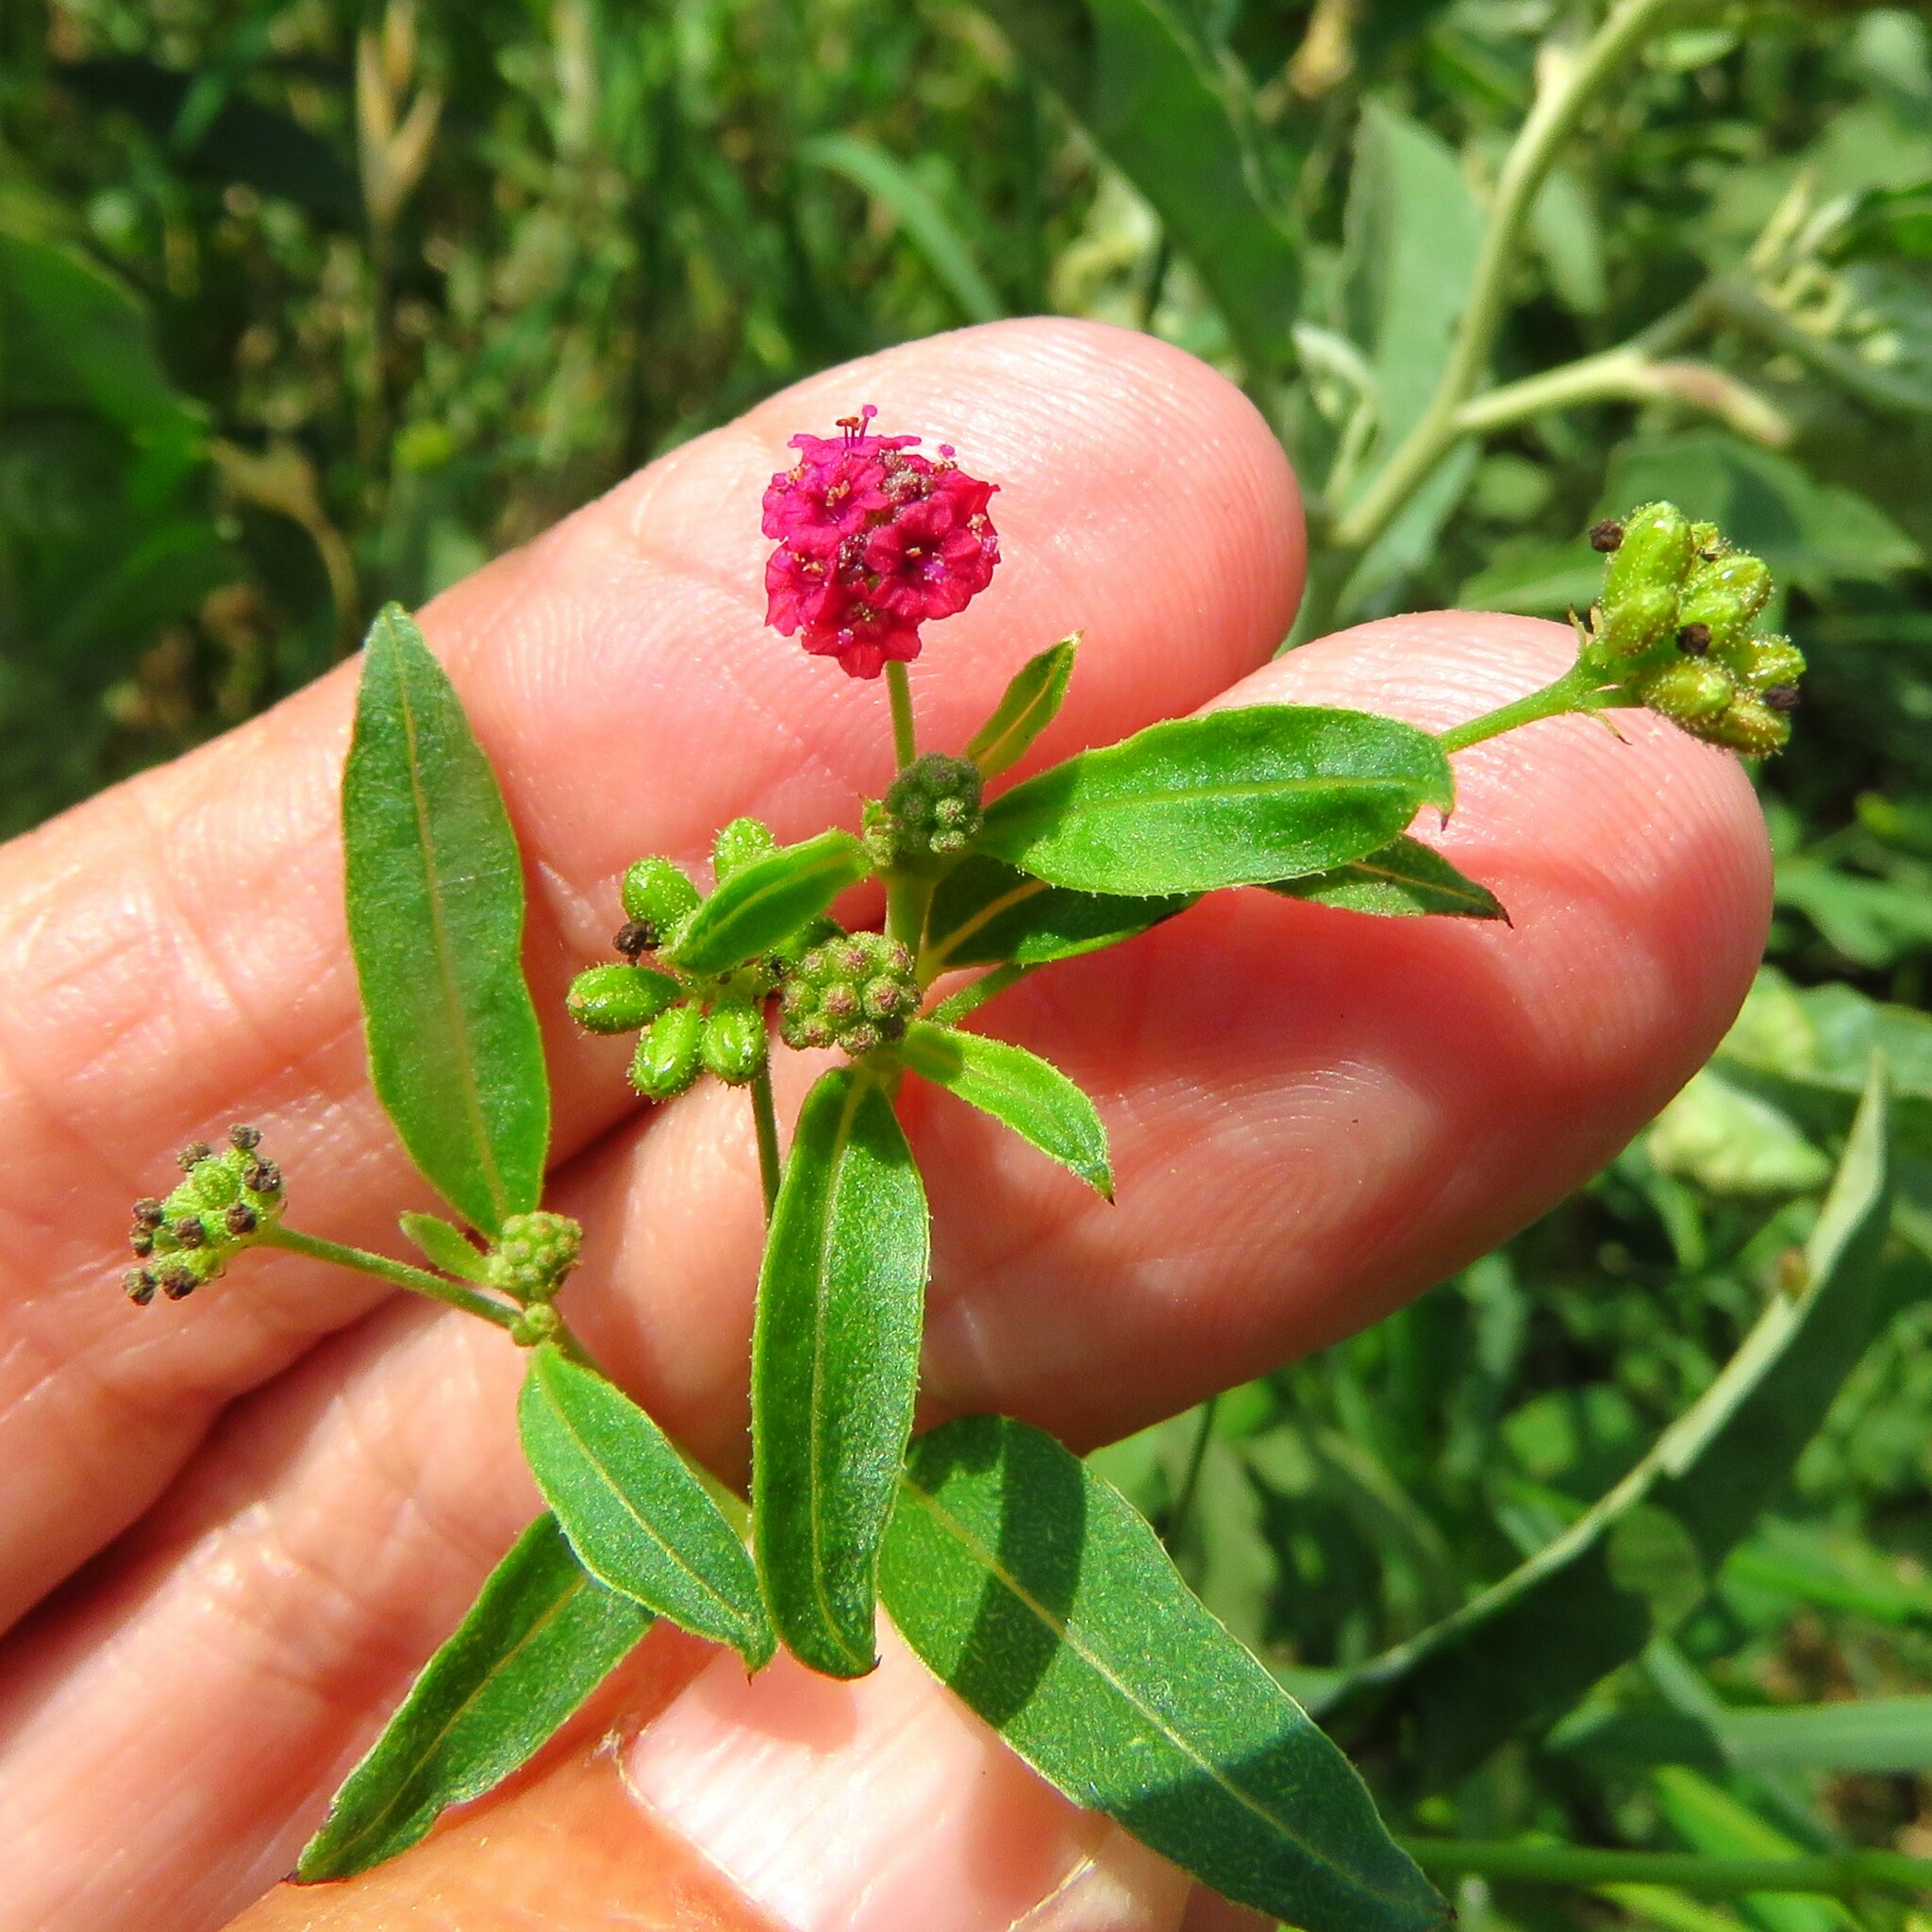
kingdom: Plantae
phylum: Tracheophyta
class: Magnoliopsida
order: Caryophyllales
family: Nyctaginaceae
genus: Boerhavia
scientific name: Boerhavia coccinea
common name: Scarlet spiderling
